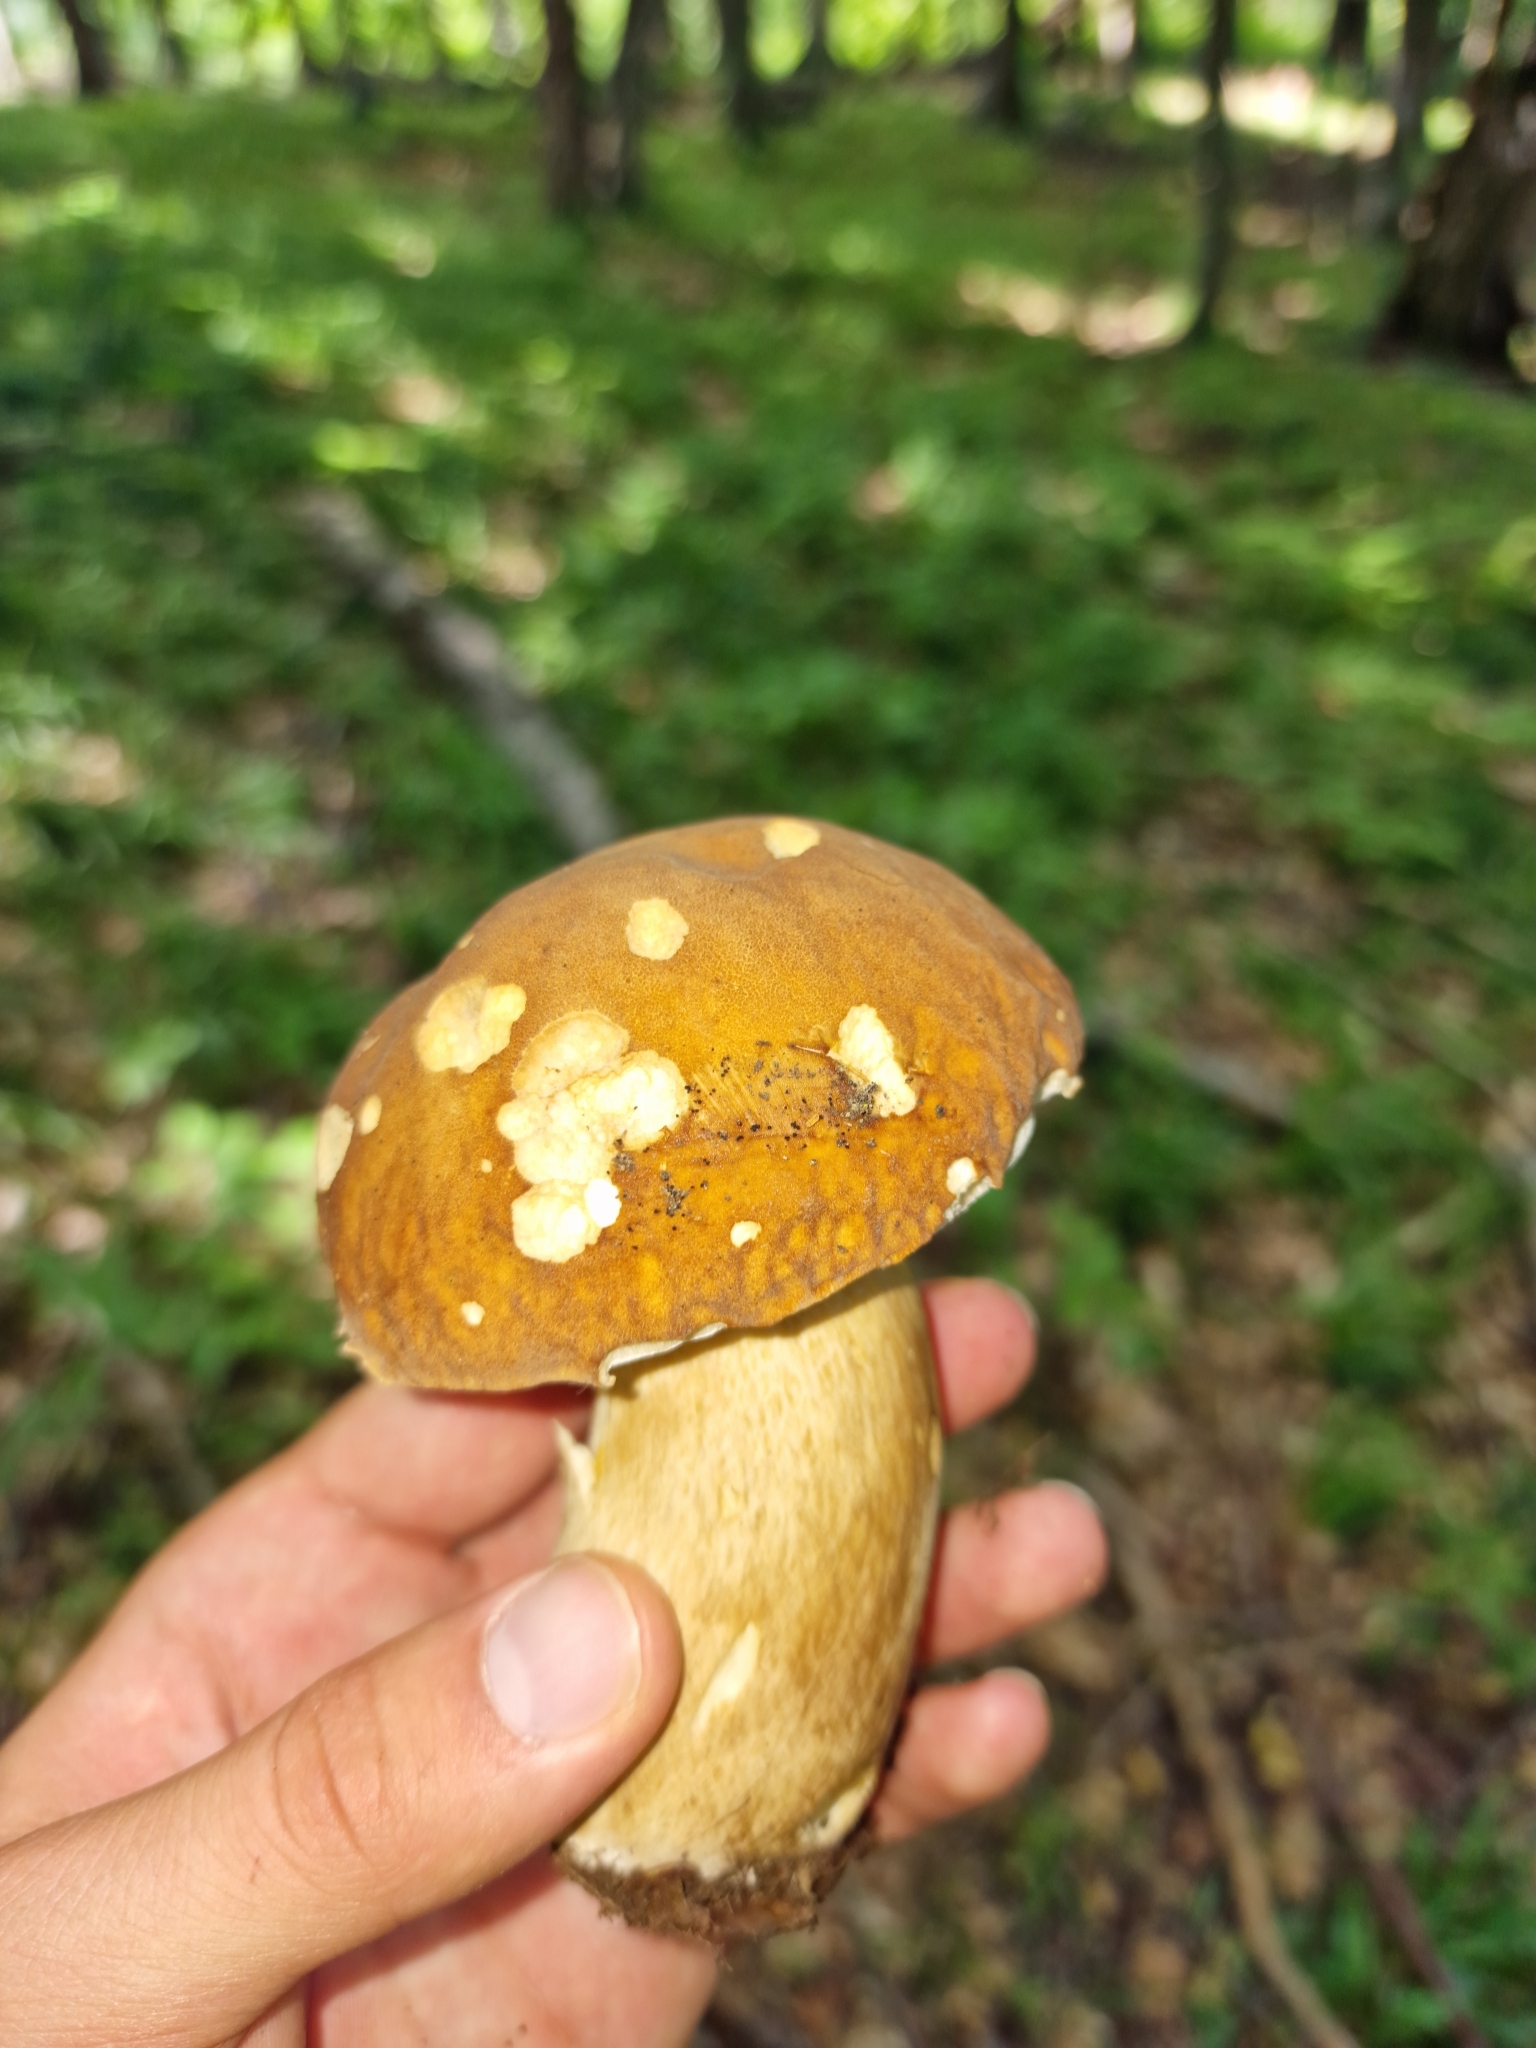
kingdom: Fungi
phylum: Basidiomycota
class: Agaricomycetes
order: Boletales
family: Boletaceae
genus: Boletus
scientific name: Boletus reticulatus
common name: Summer bolete
